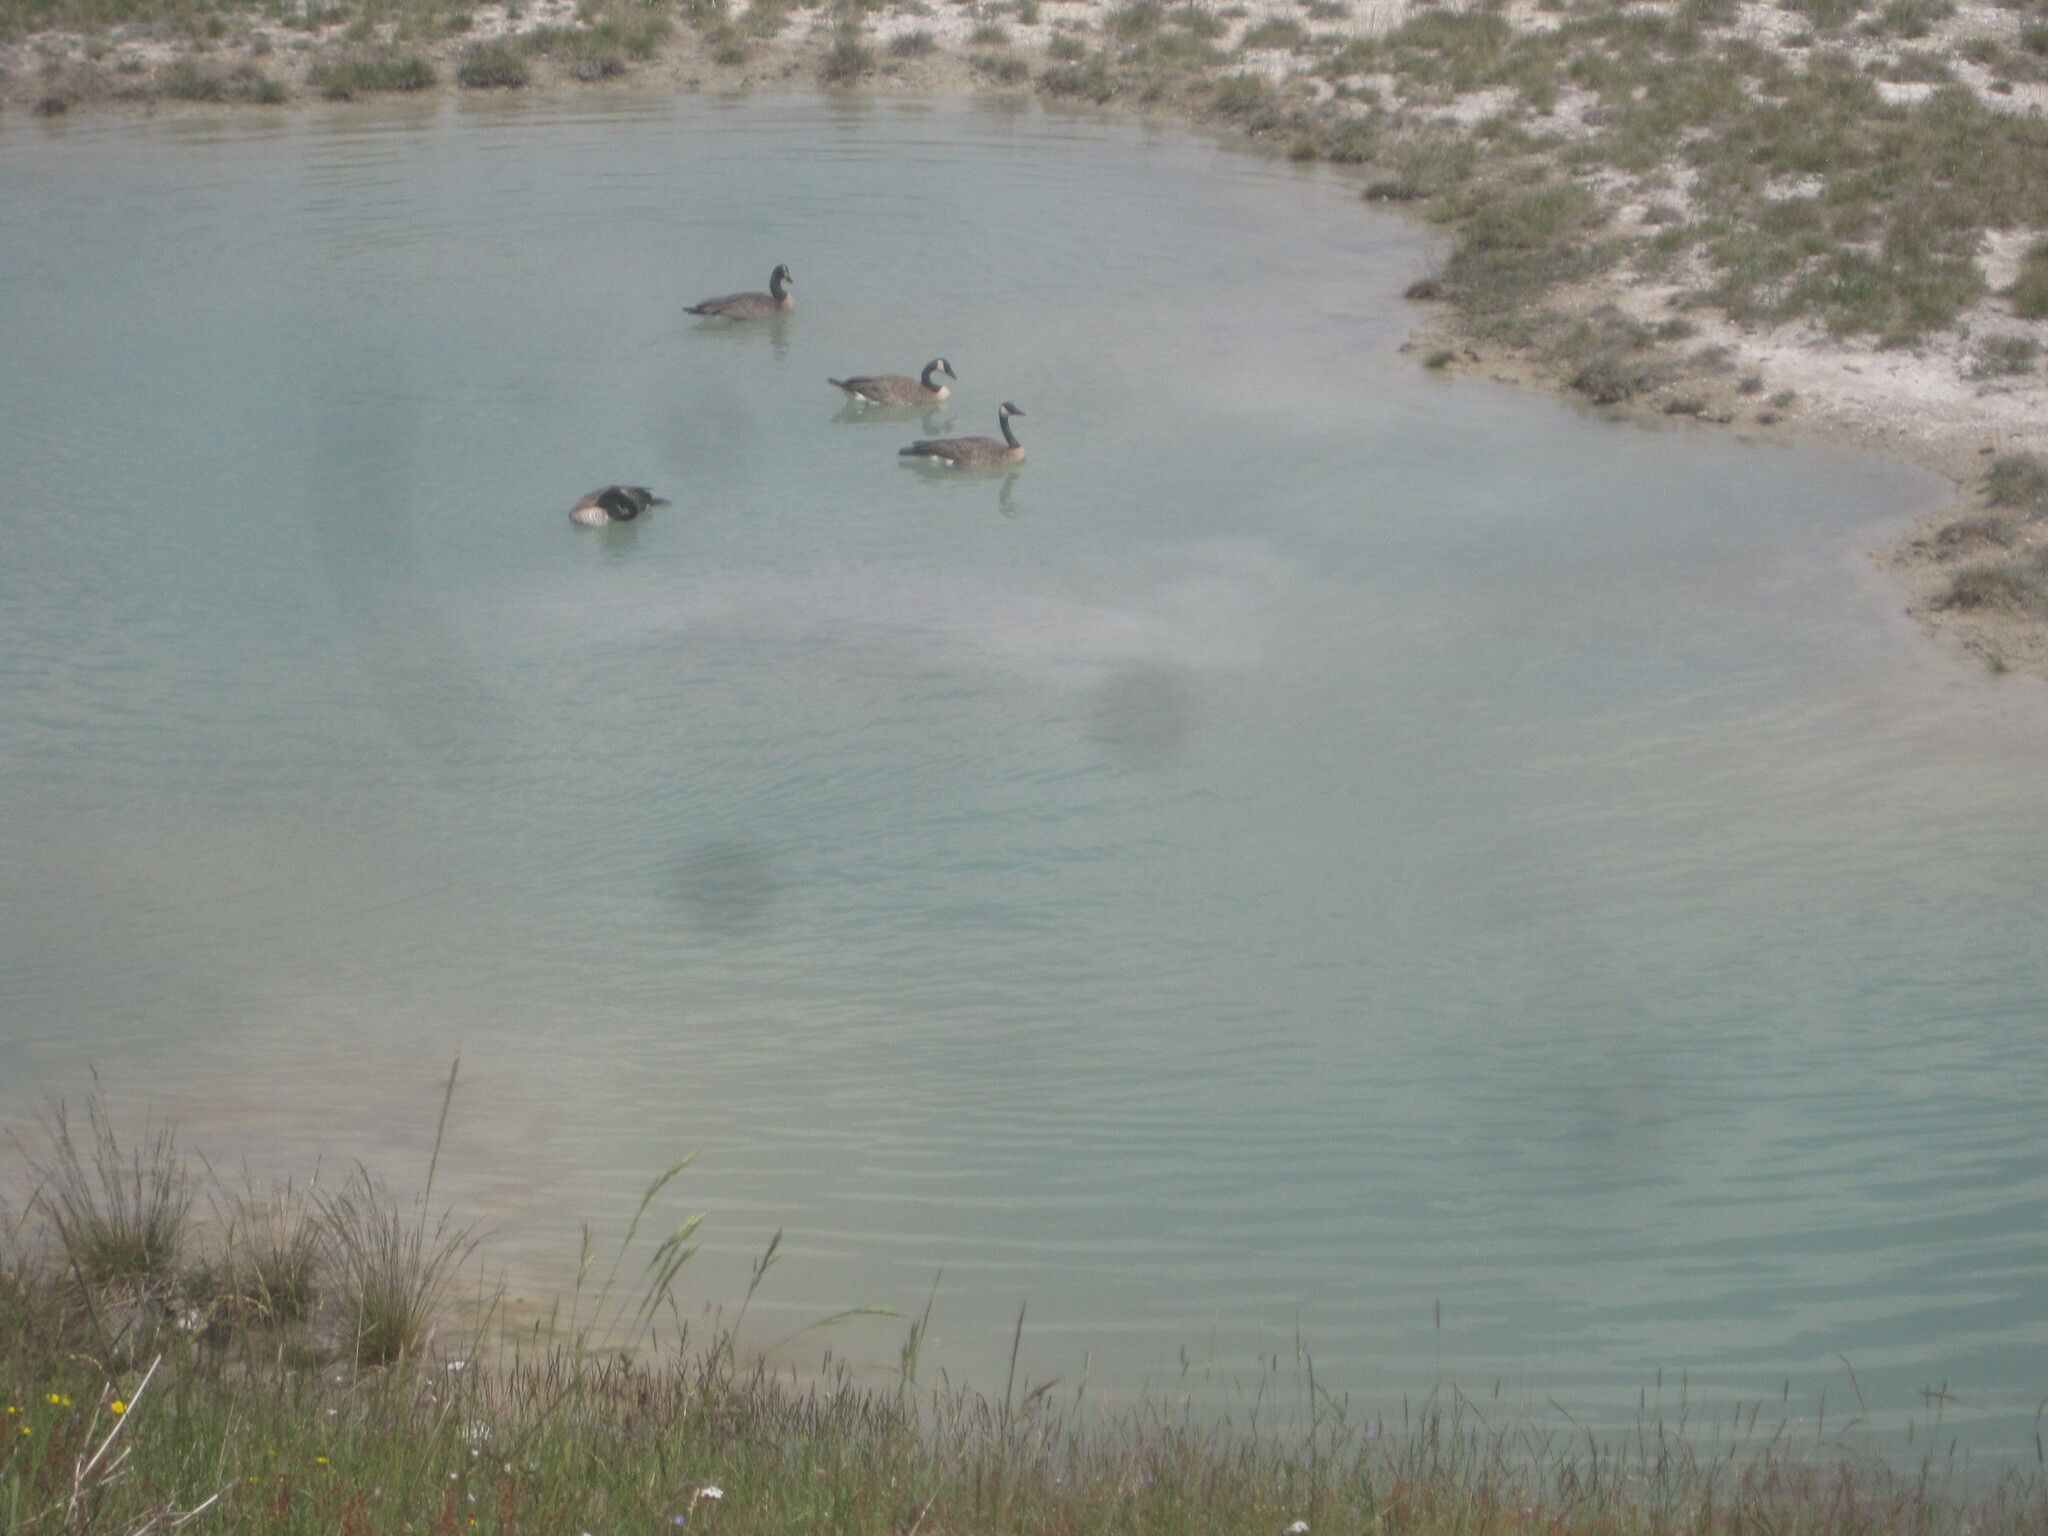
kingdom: Animalia
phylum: Chordata
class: Aves
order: Anseriformes
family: Anatidae
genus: Branta
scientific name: Branta canadensis
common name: Canada goose
